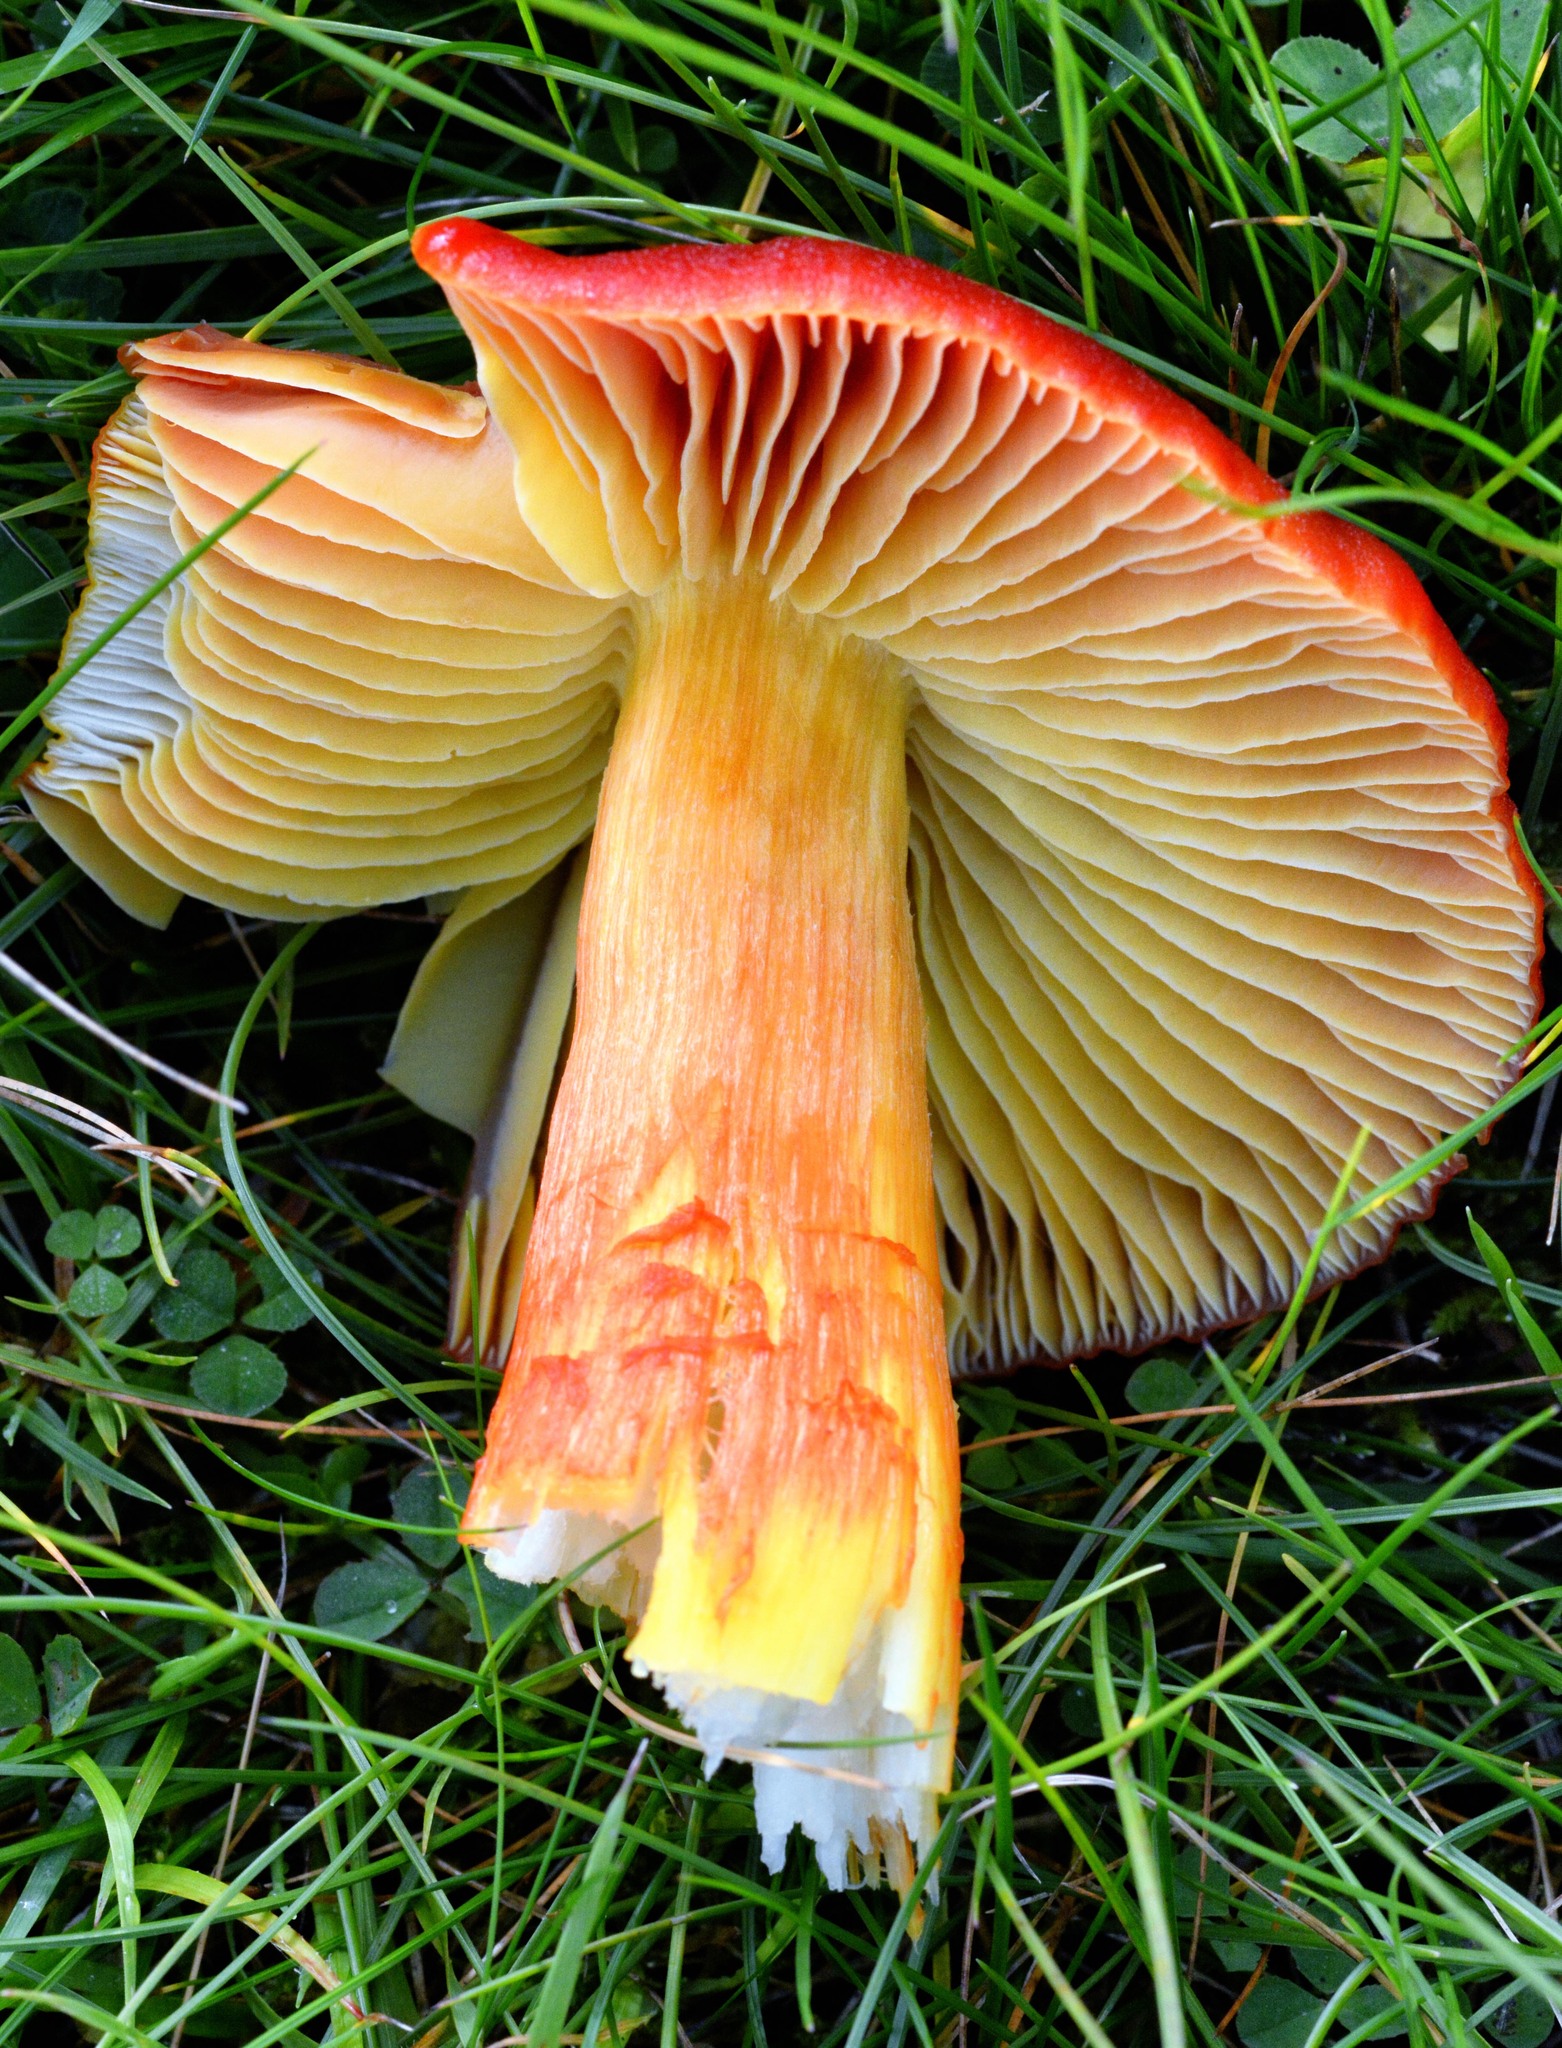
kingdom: Fungi
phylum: Basidiomycota
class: Agaricomycetes
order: Agaricales
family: Hygrophoraceae
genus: Hygrocybe
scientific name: Hygrocybe punicea
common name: Crimson waxcap
